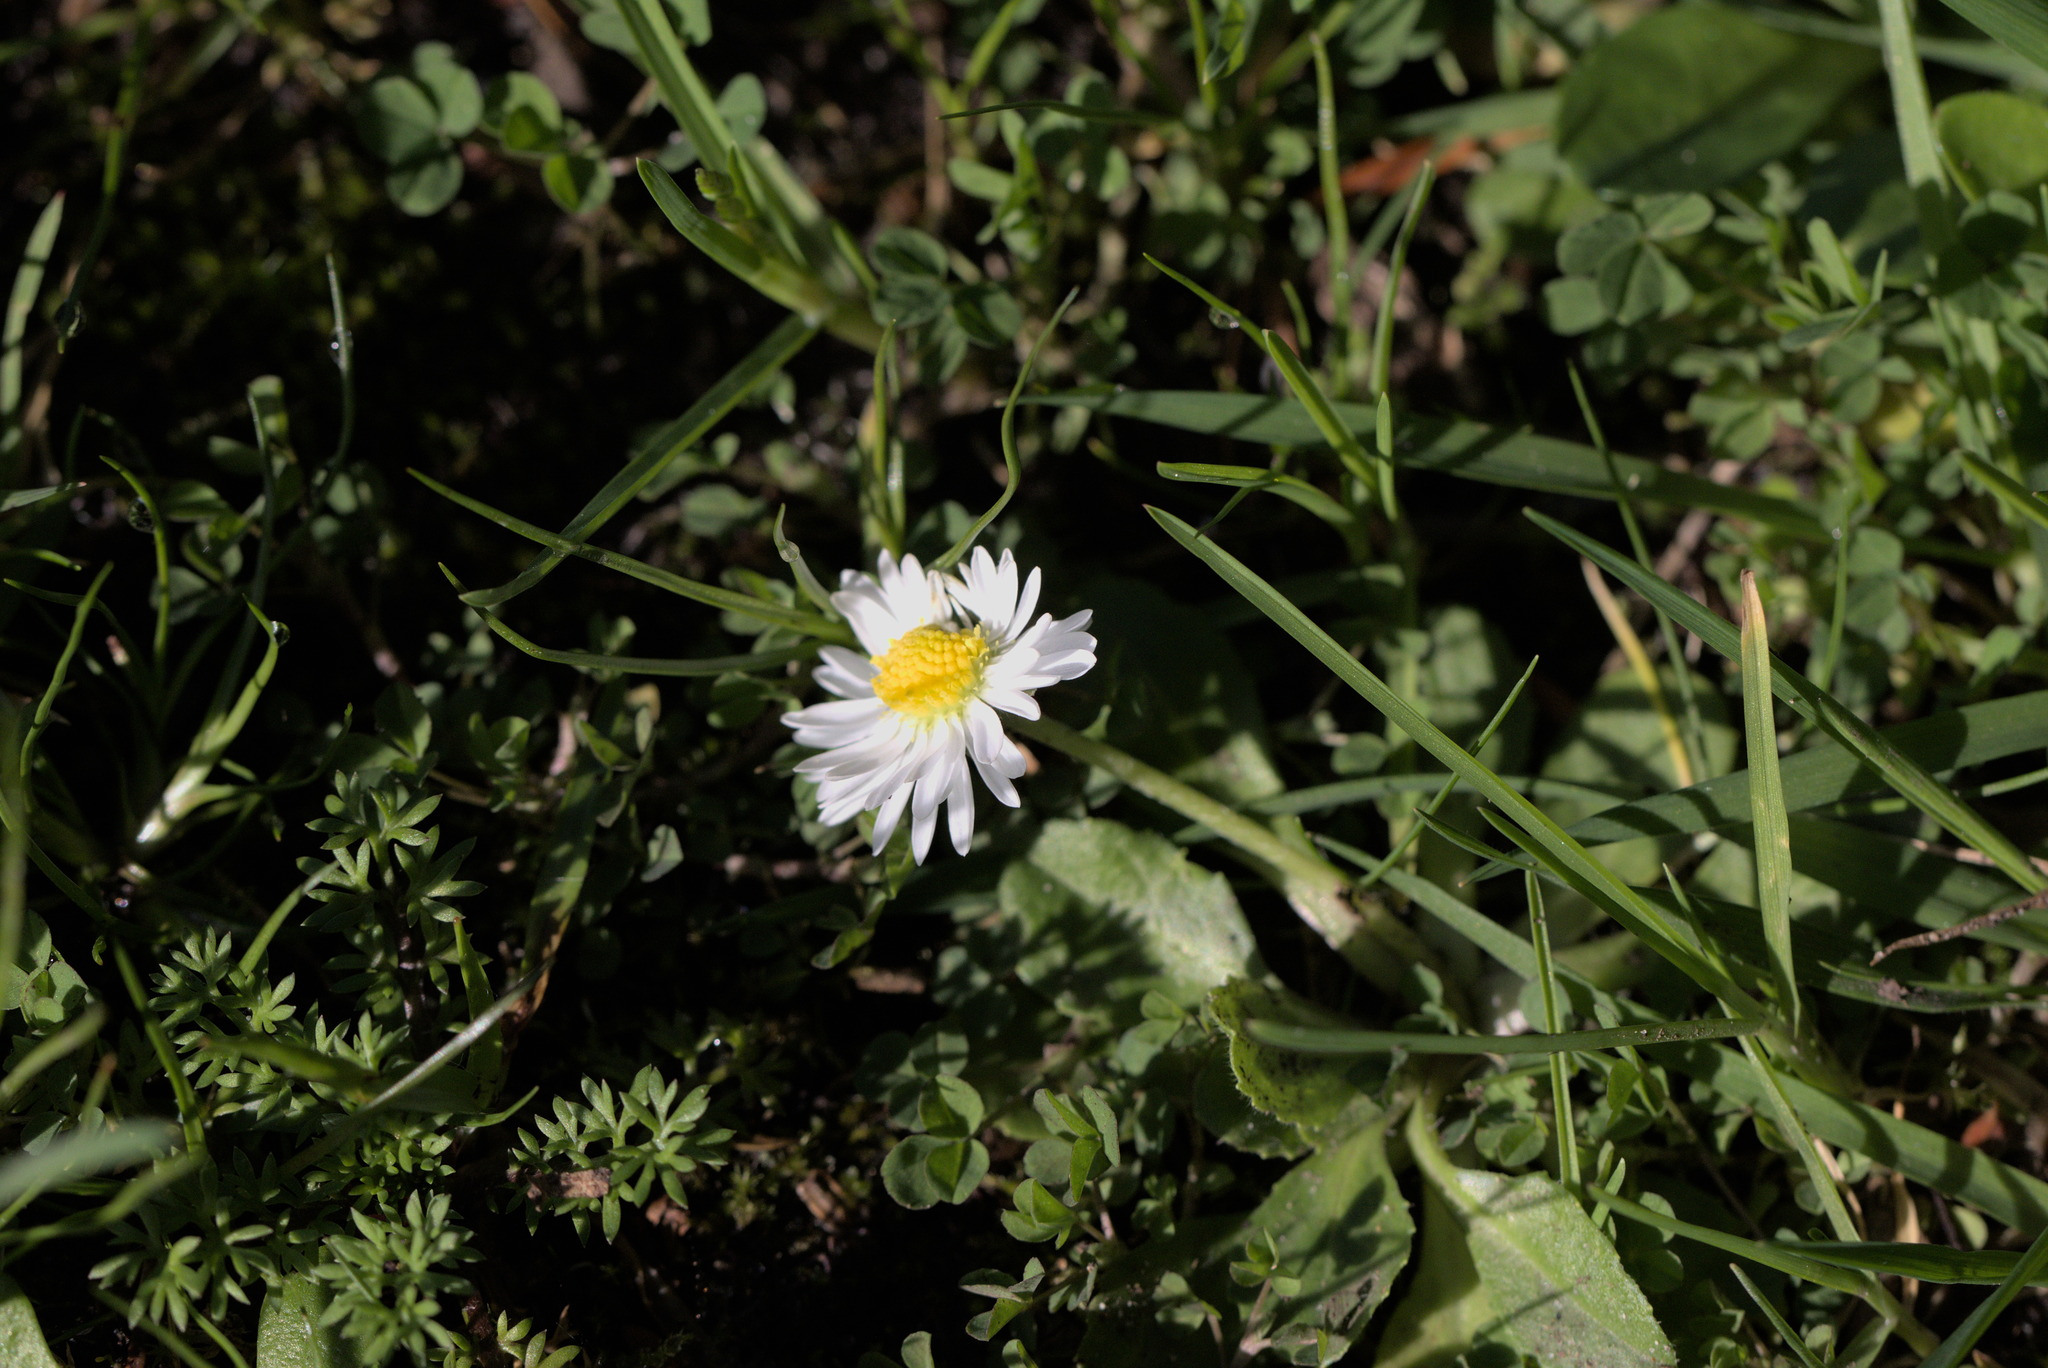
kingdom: Plantae
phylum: Tracheophyta
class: Magnoliopsida
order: Asterales
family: Asteraceae
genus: Bellis
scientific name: Bellis perennis
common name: Lawndaisy
